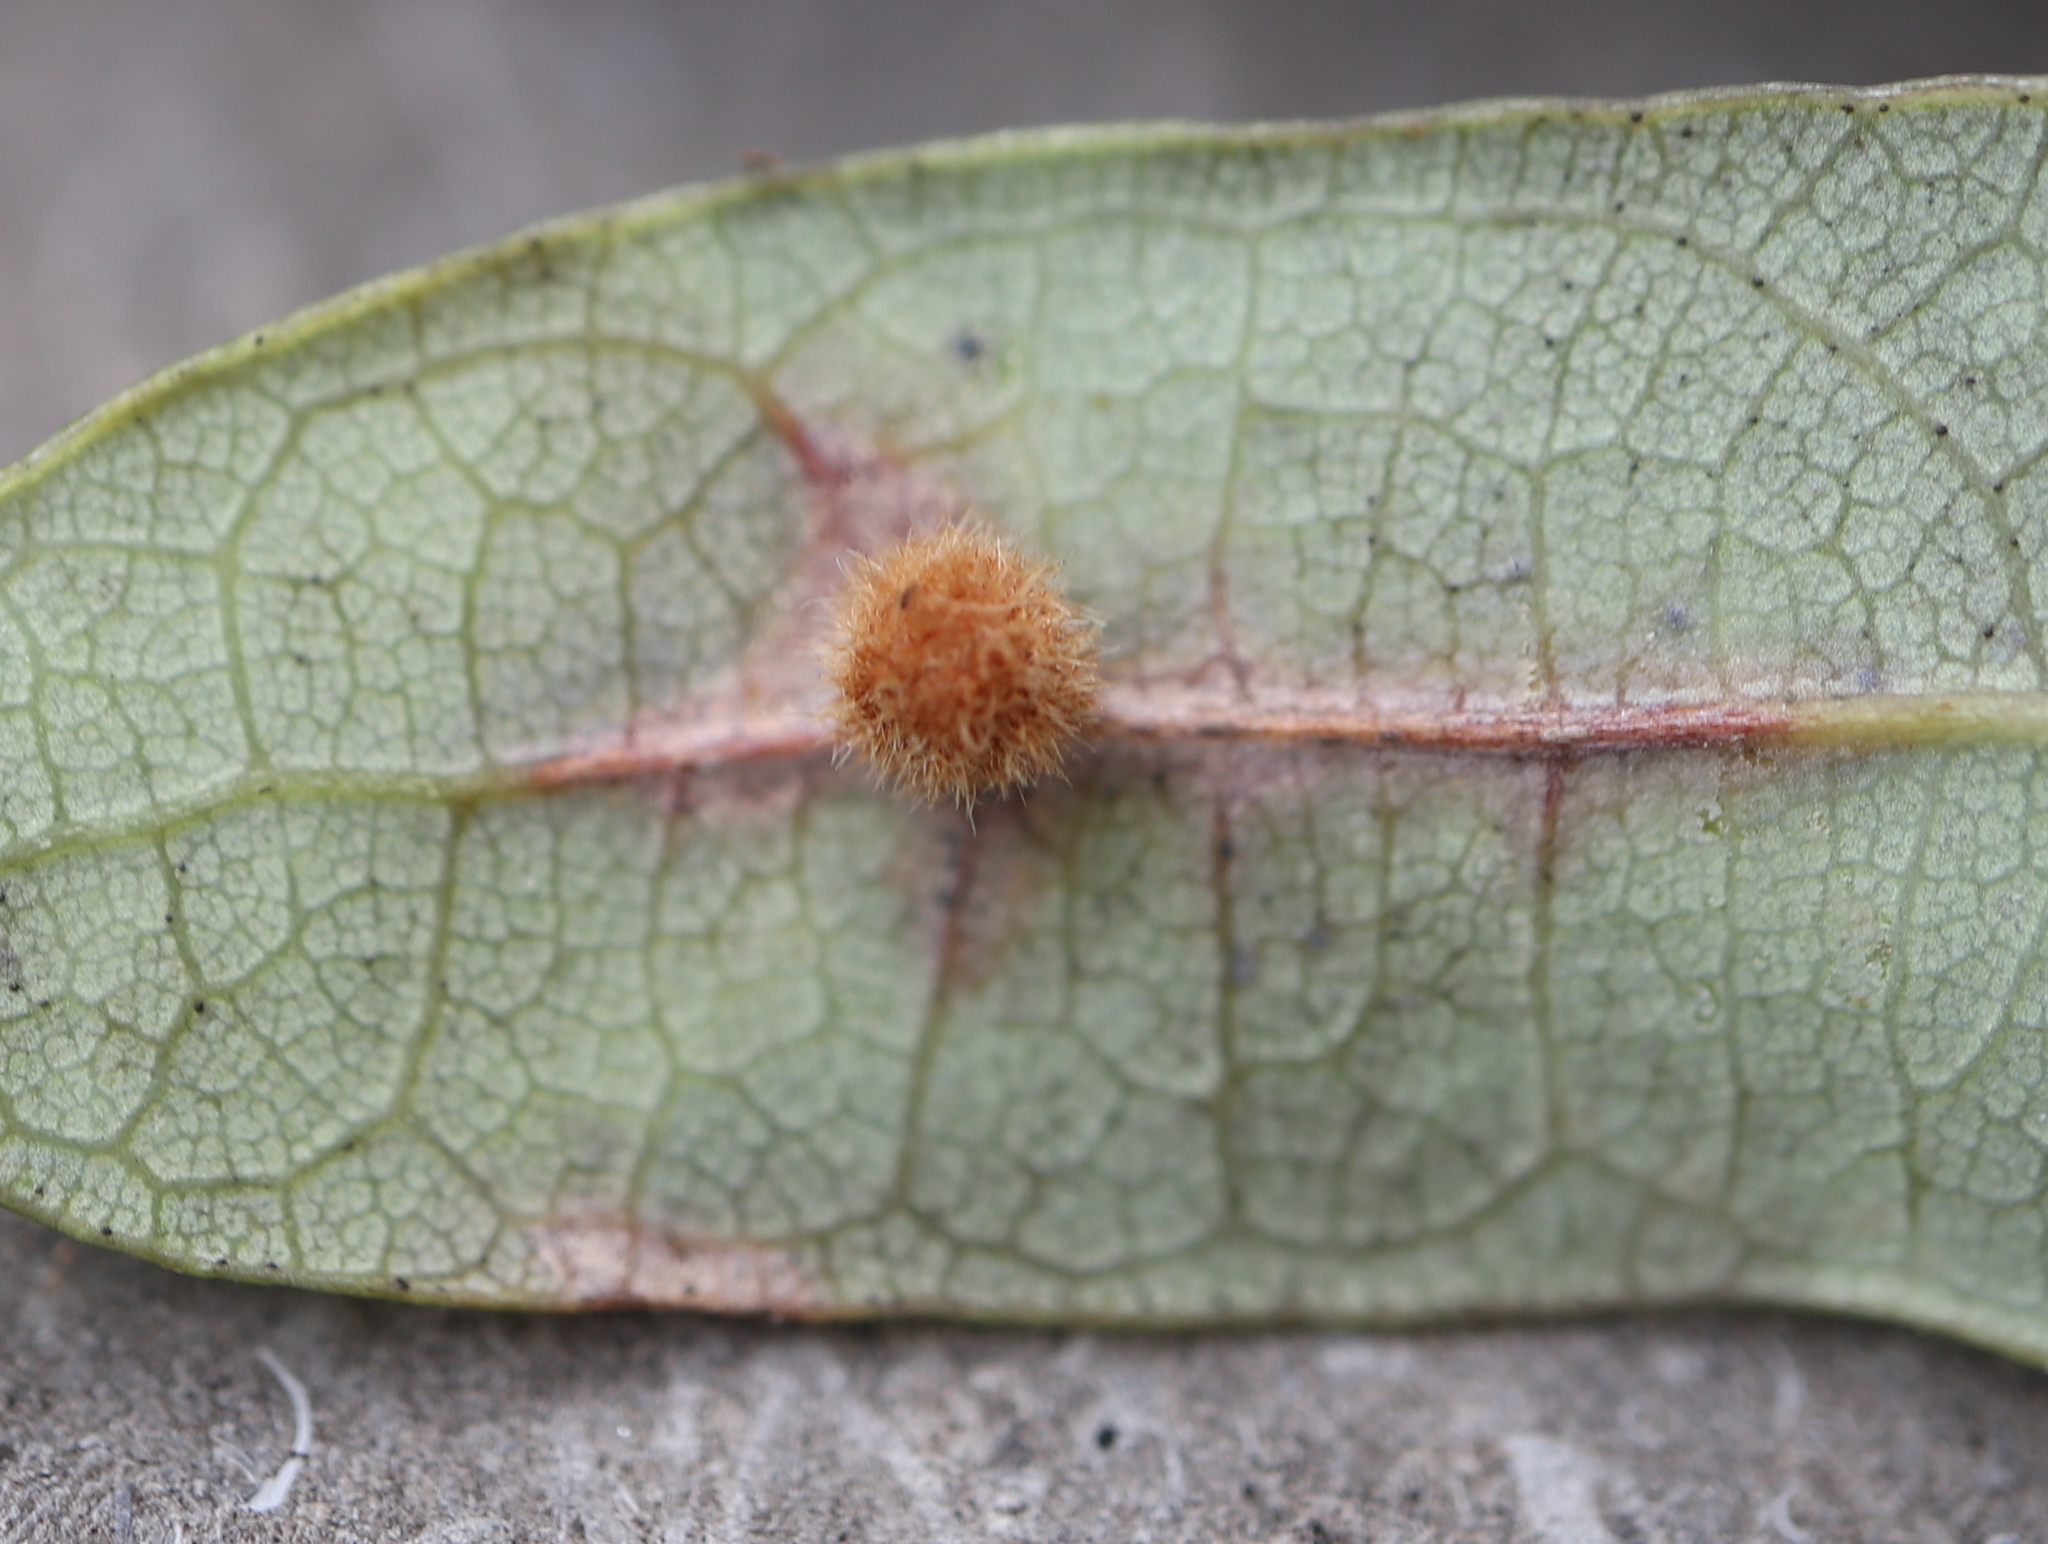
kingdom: Animalia
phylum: Arthropoda
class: Insecta
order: Hymenoptera
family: Cynipidae
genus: Philonix
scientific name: Philonix fulvicollis
